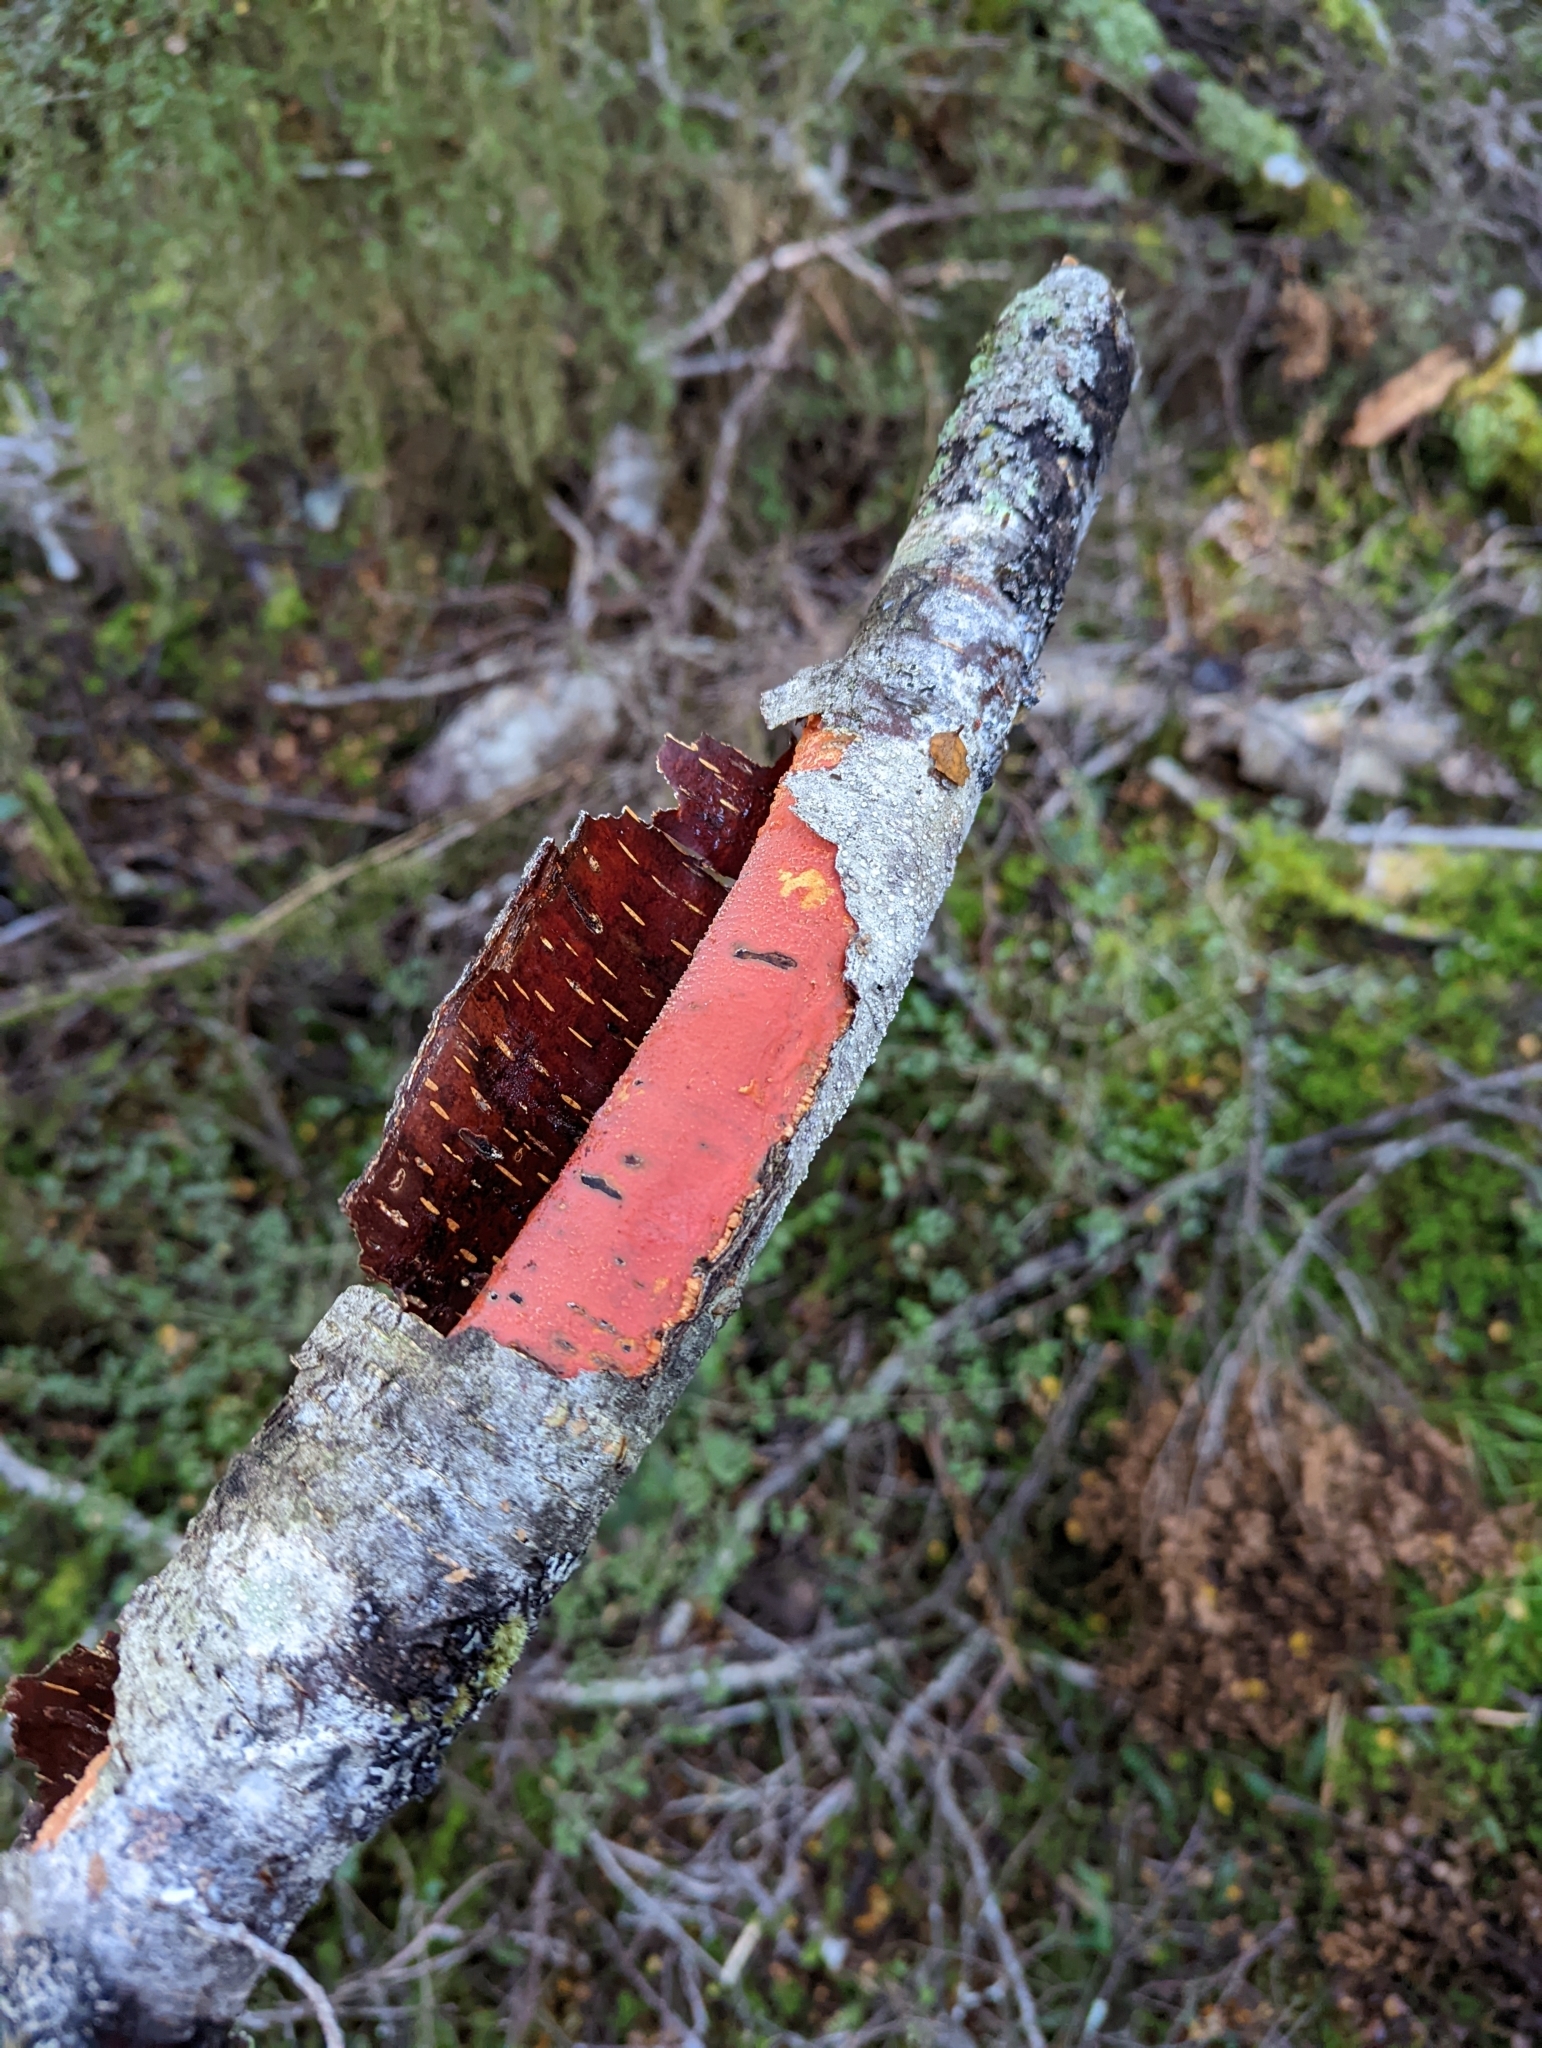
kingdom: Fungi
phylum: Basidiomycota
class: Agaricomycetes
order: Corticiales
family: Vuilleminiaceae
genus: Australovuilleminia
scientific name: Australovuilleminia coccinea
